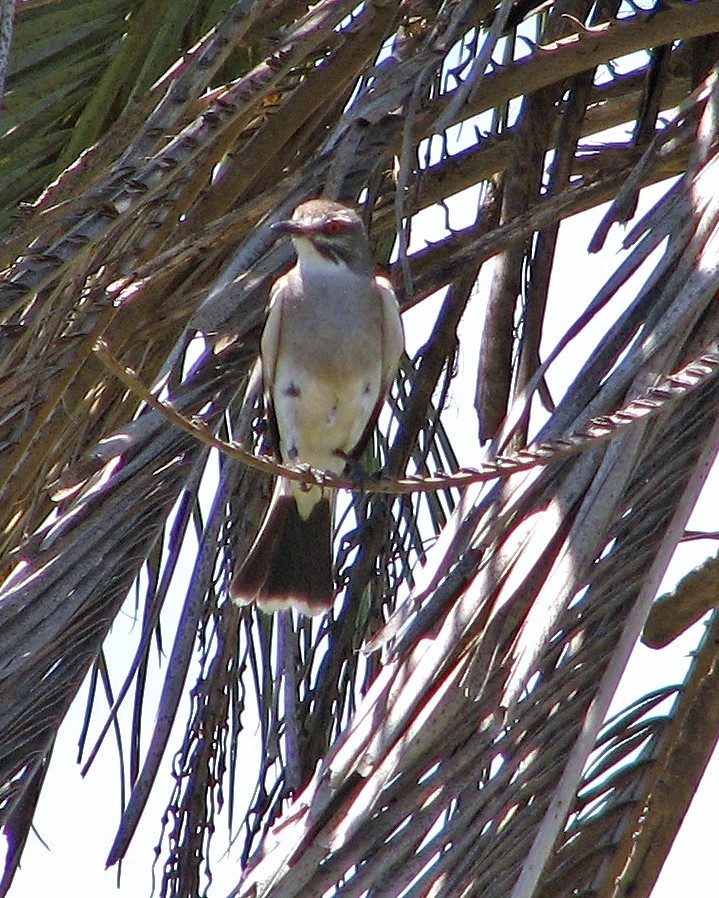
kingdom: Animalia
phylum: Chordata
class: Aves
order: Passeriformes
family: Tyrannidae
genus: Xolmis
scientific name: Xolmis cinereus
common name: Grey monjita
